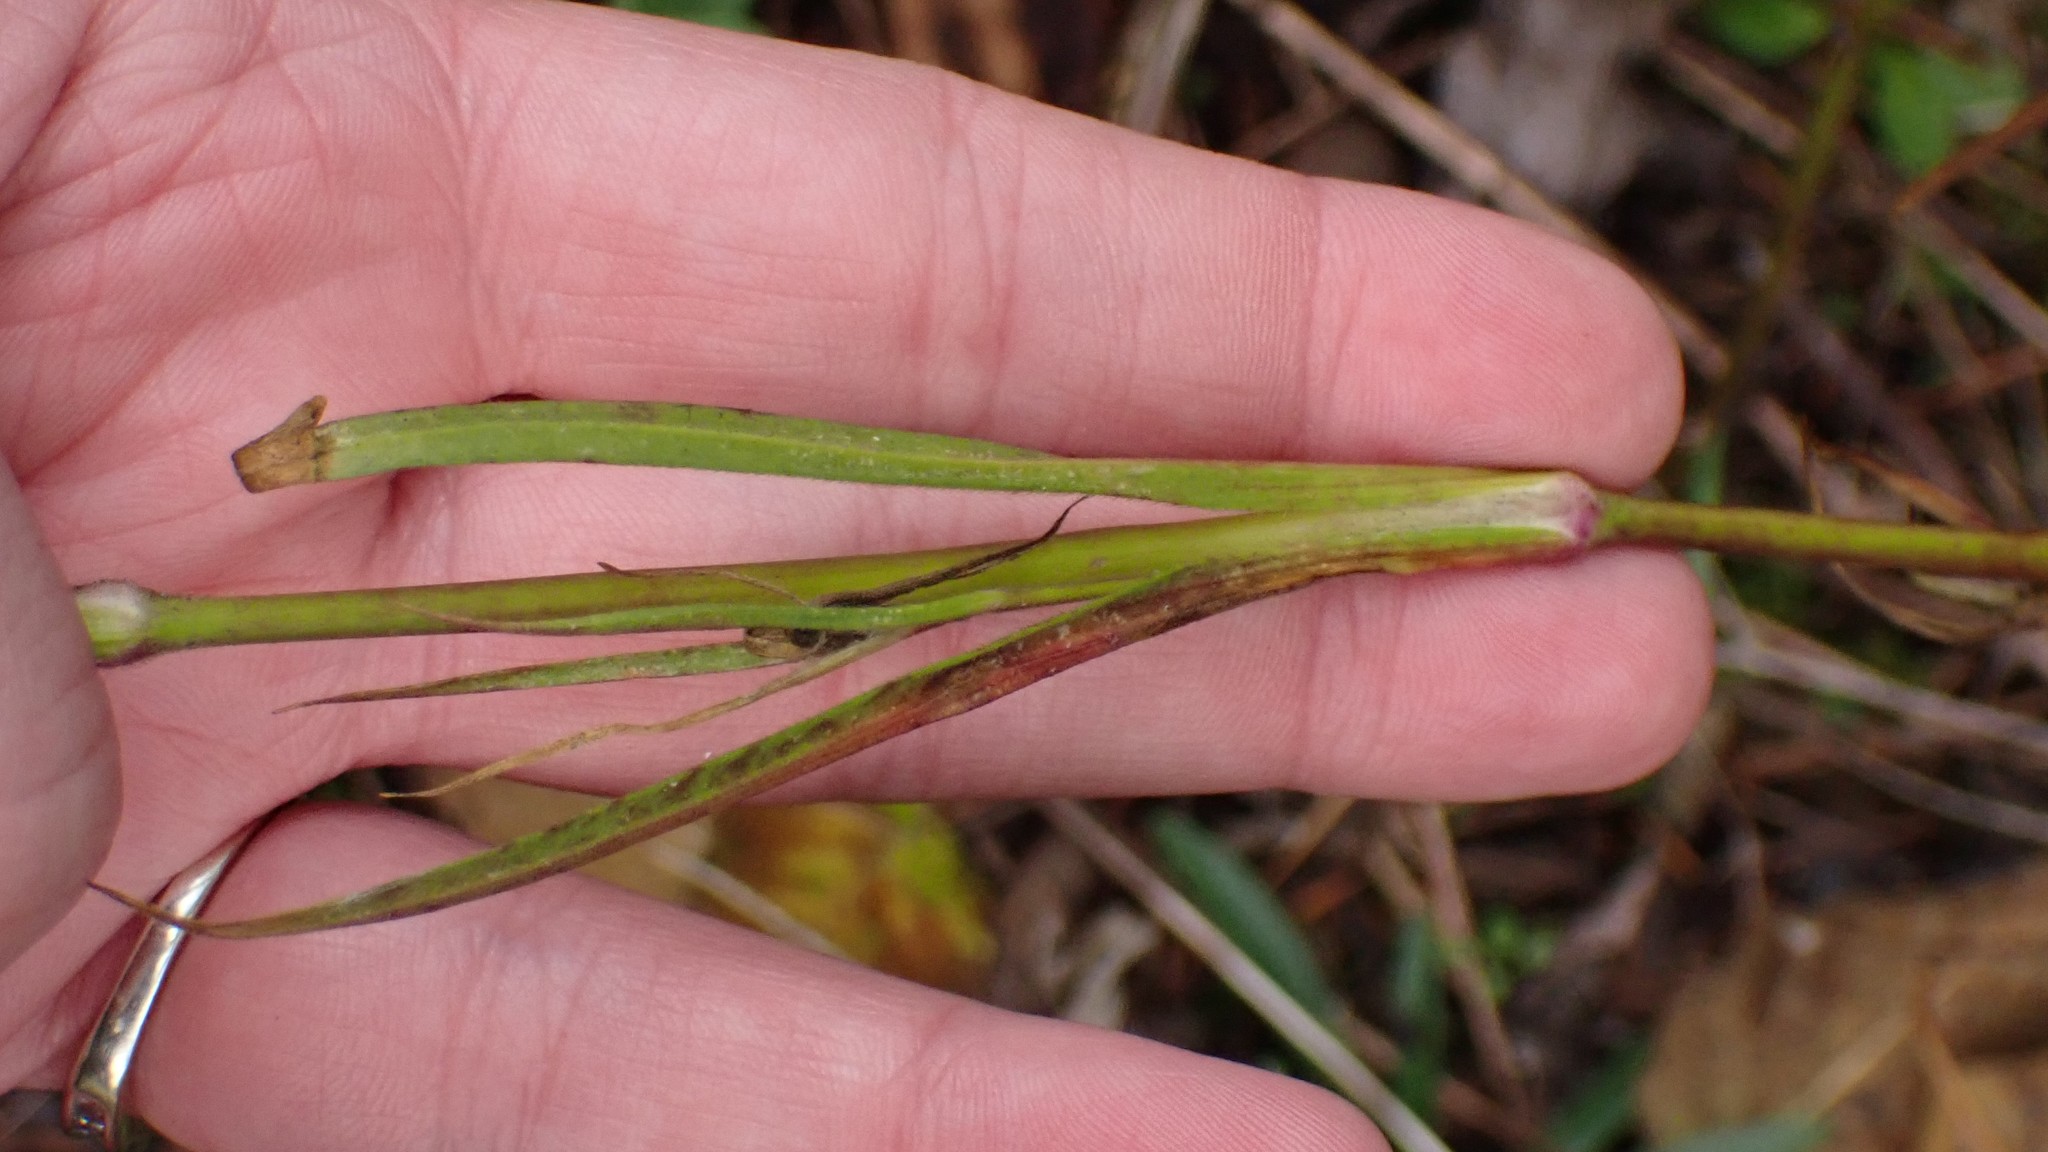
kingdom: Plantae
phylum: Tracheophyta
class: Magnoliopsida
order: Caryophyllales
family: Caryophyllaceae
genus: Dianthus
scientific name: Dianthus armeria
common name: Deptford pink
